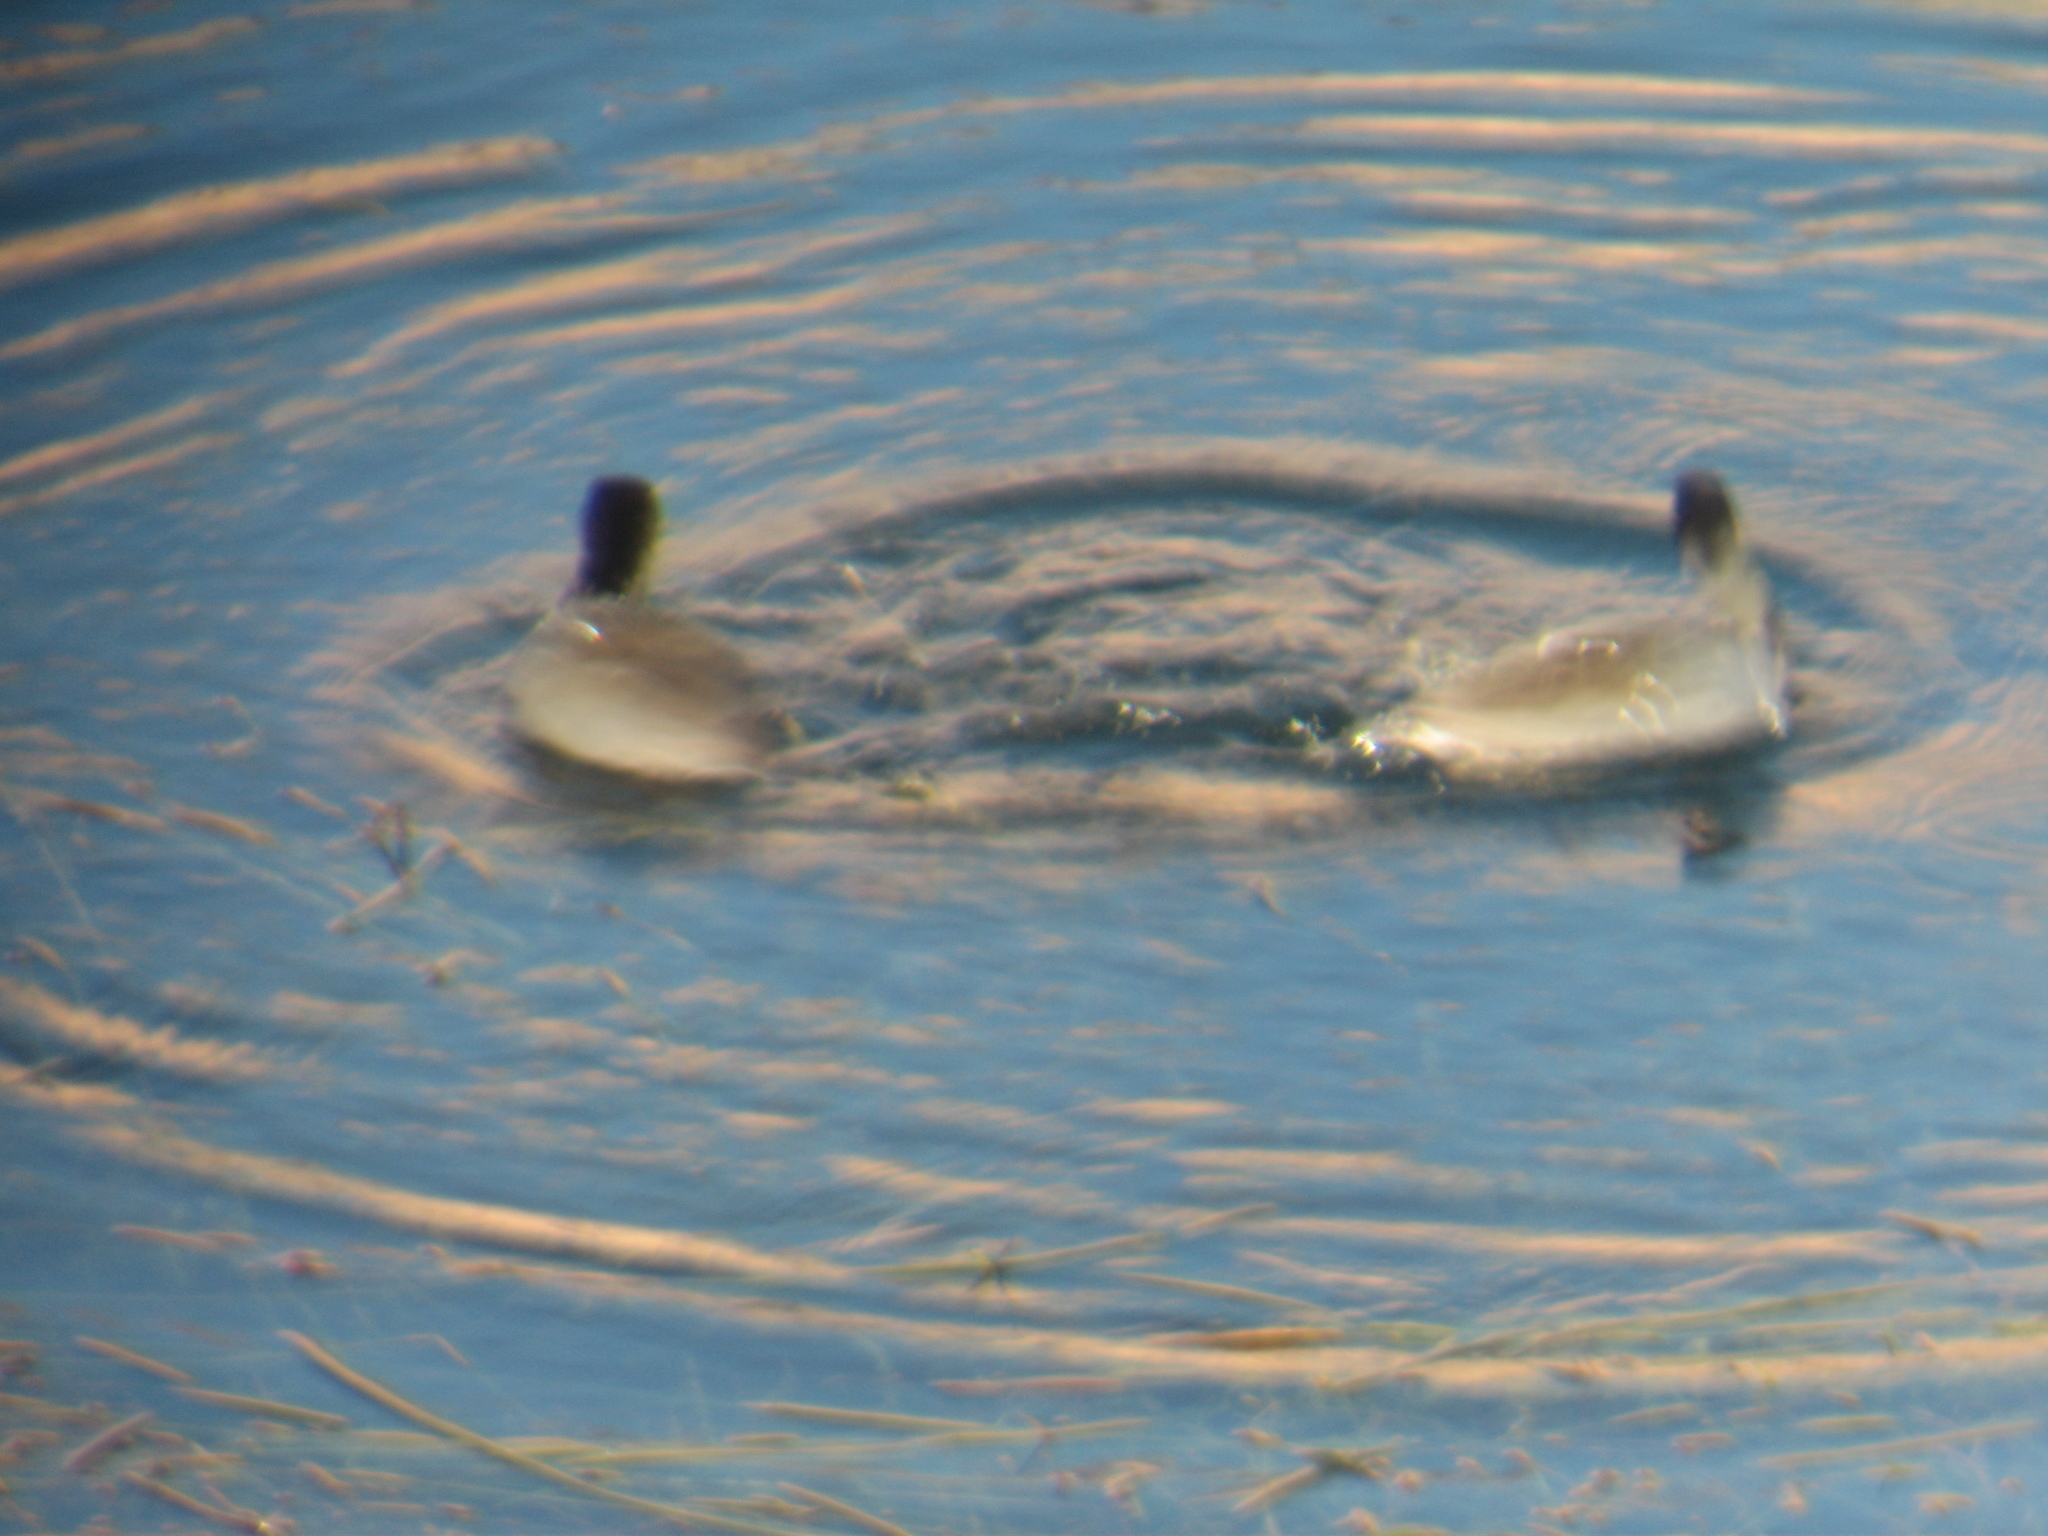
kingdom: Animalia
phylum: Chordata
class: Aves
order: Gruiformes
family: Rallidae
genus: Fulica
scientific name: Fulica americana
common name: American coot
